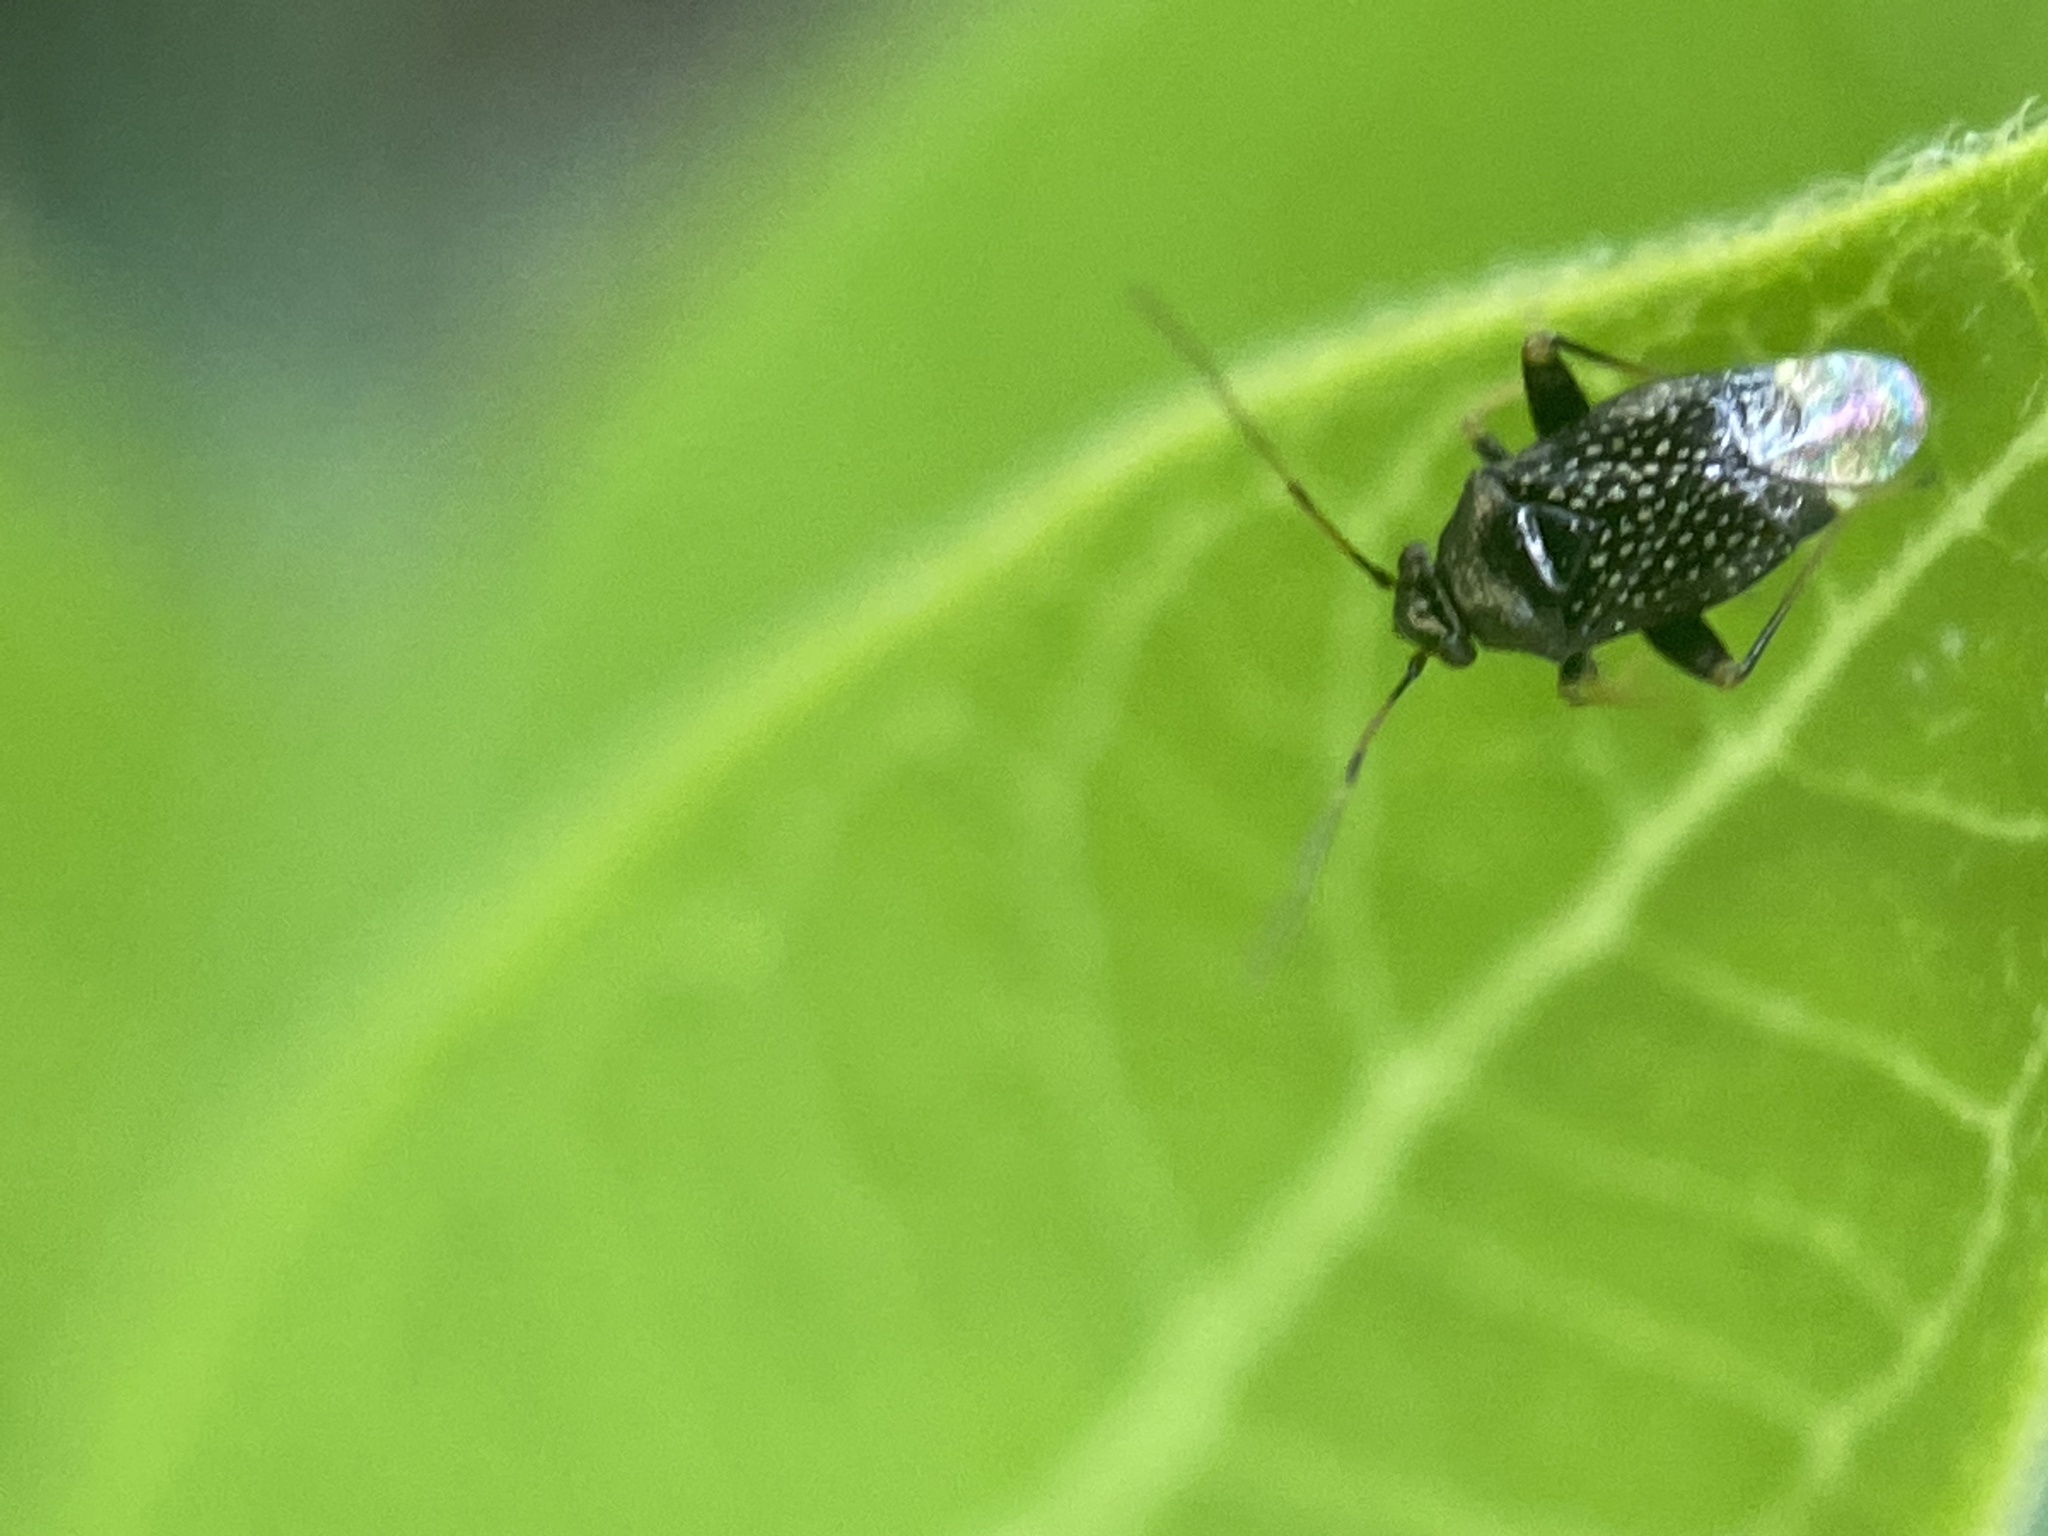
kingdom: Animalia
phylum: Arthropoda
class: Insecta
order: Hemiptera
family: Miridae
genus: Microtechnites
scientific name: Microtechnites bractatus
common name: Garden fleahopper
